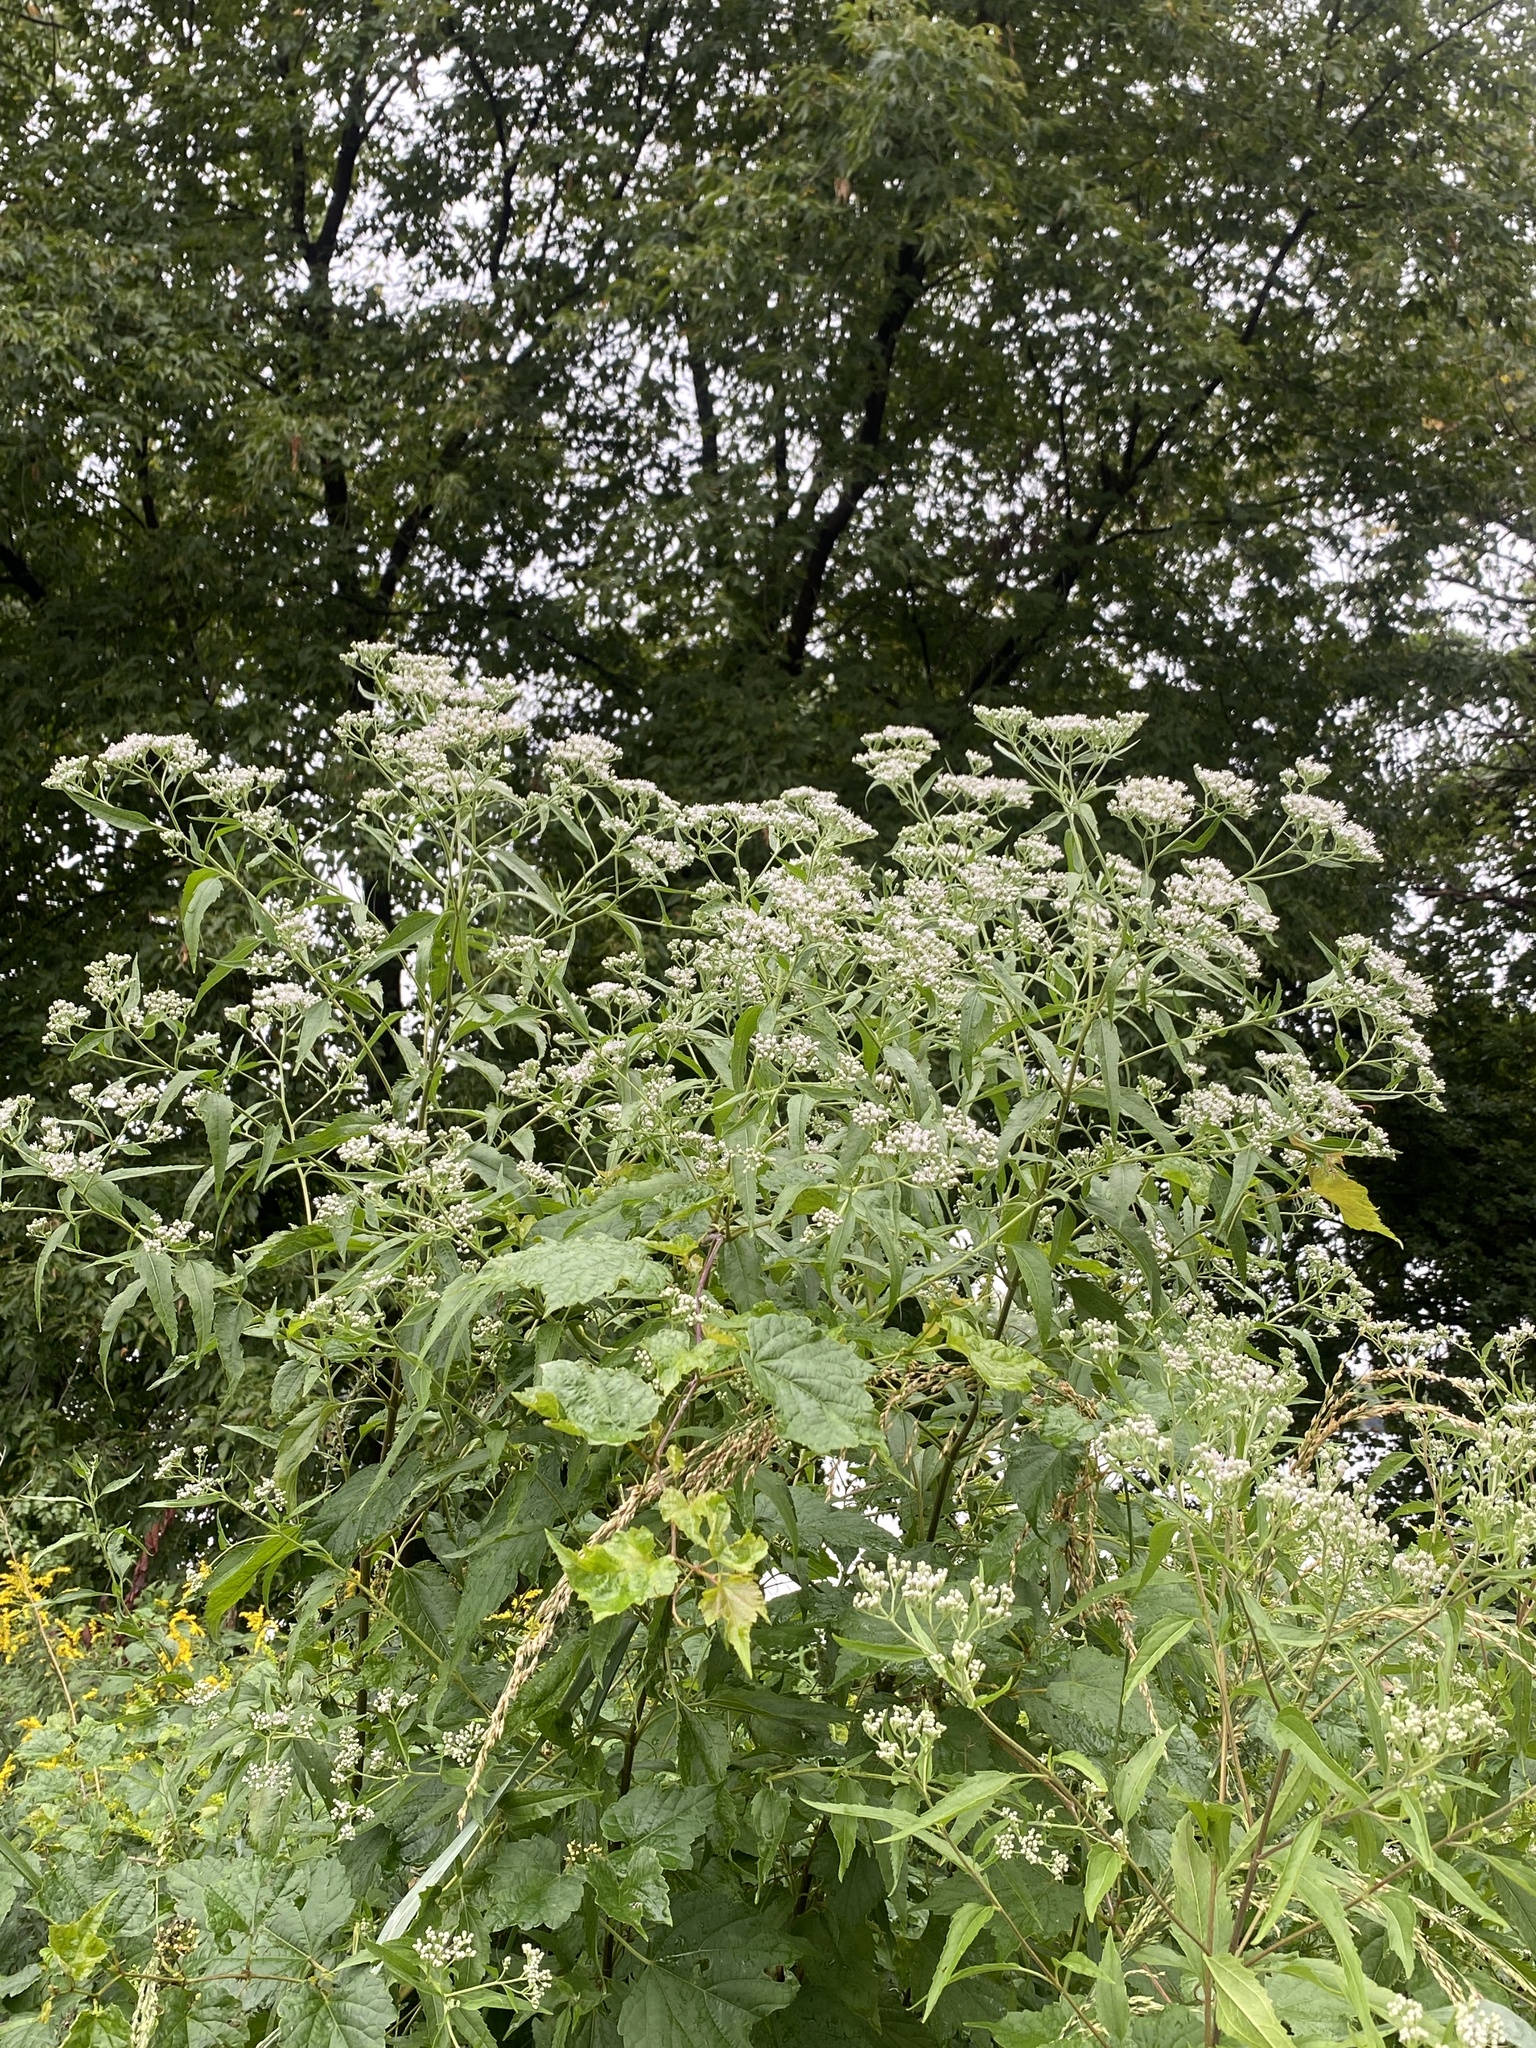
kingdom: Plantae
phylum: Tracheophyta
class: Magnoliopsida
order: Asterales
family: Asteraceae
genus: Eupatorium
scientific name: Eupatorium serotinum
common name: Late boneset
